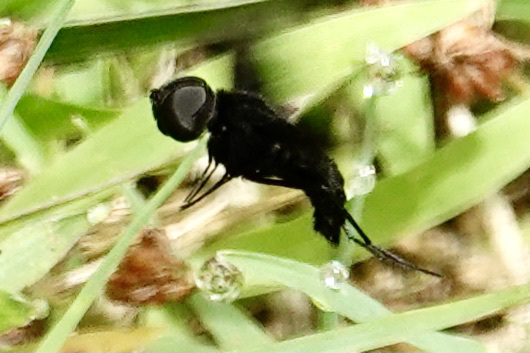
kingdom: Animalia
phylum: Arthropoda
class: Insecta
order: Diptera
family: Bombyliidae
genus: Anthrax
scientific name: Anthrax analis
